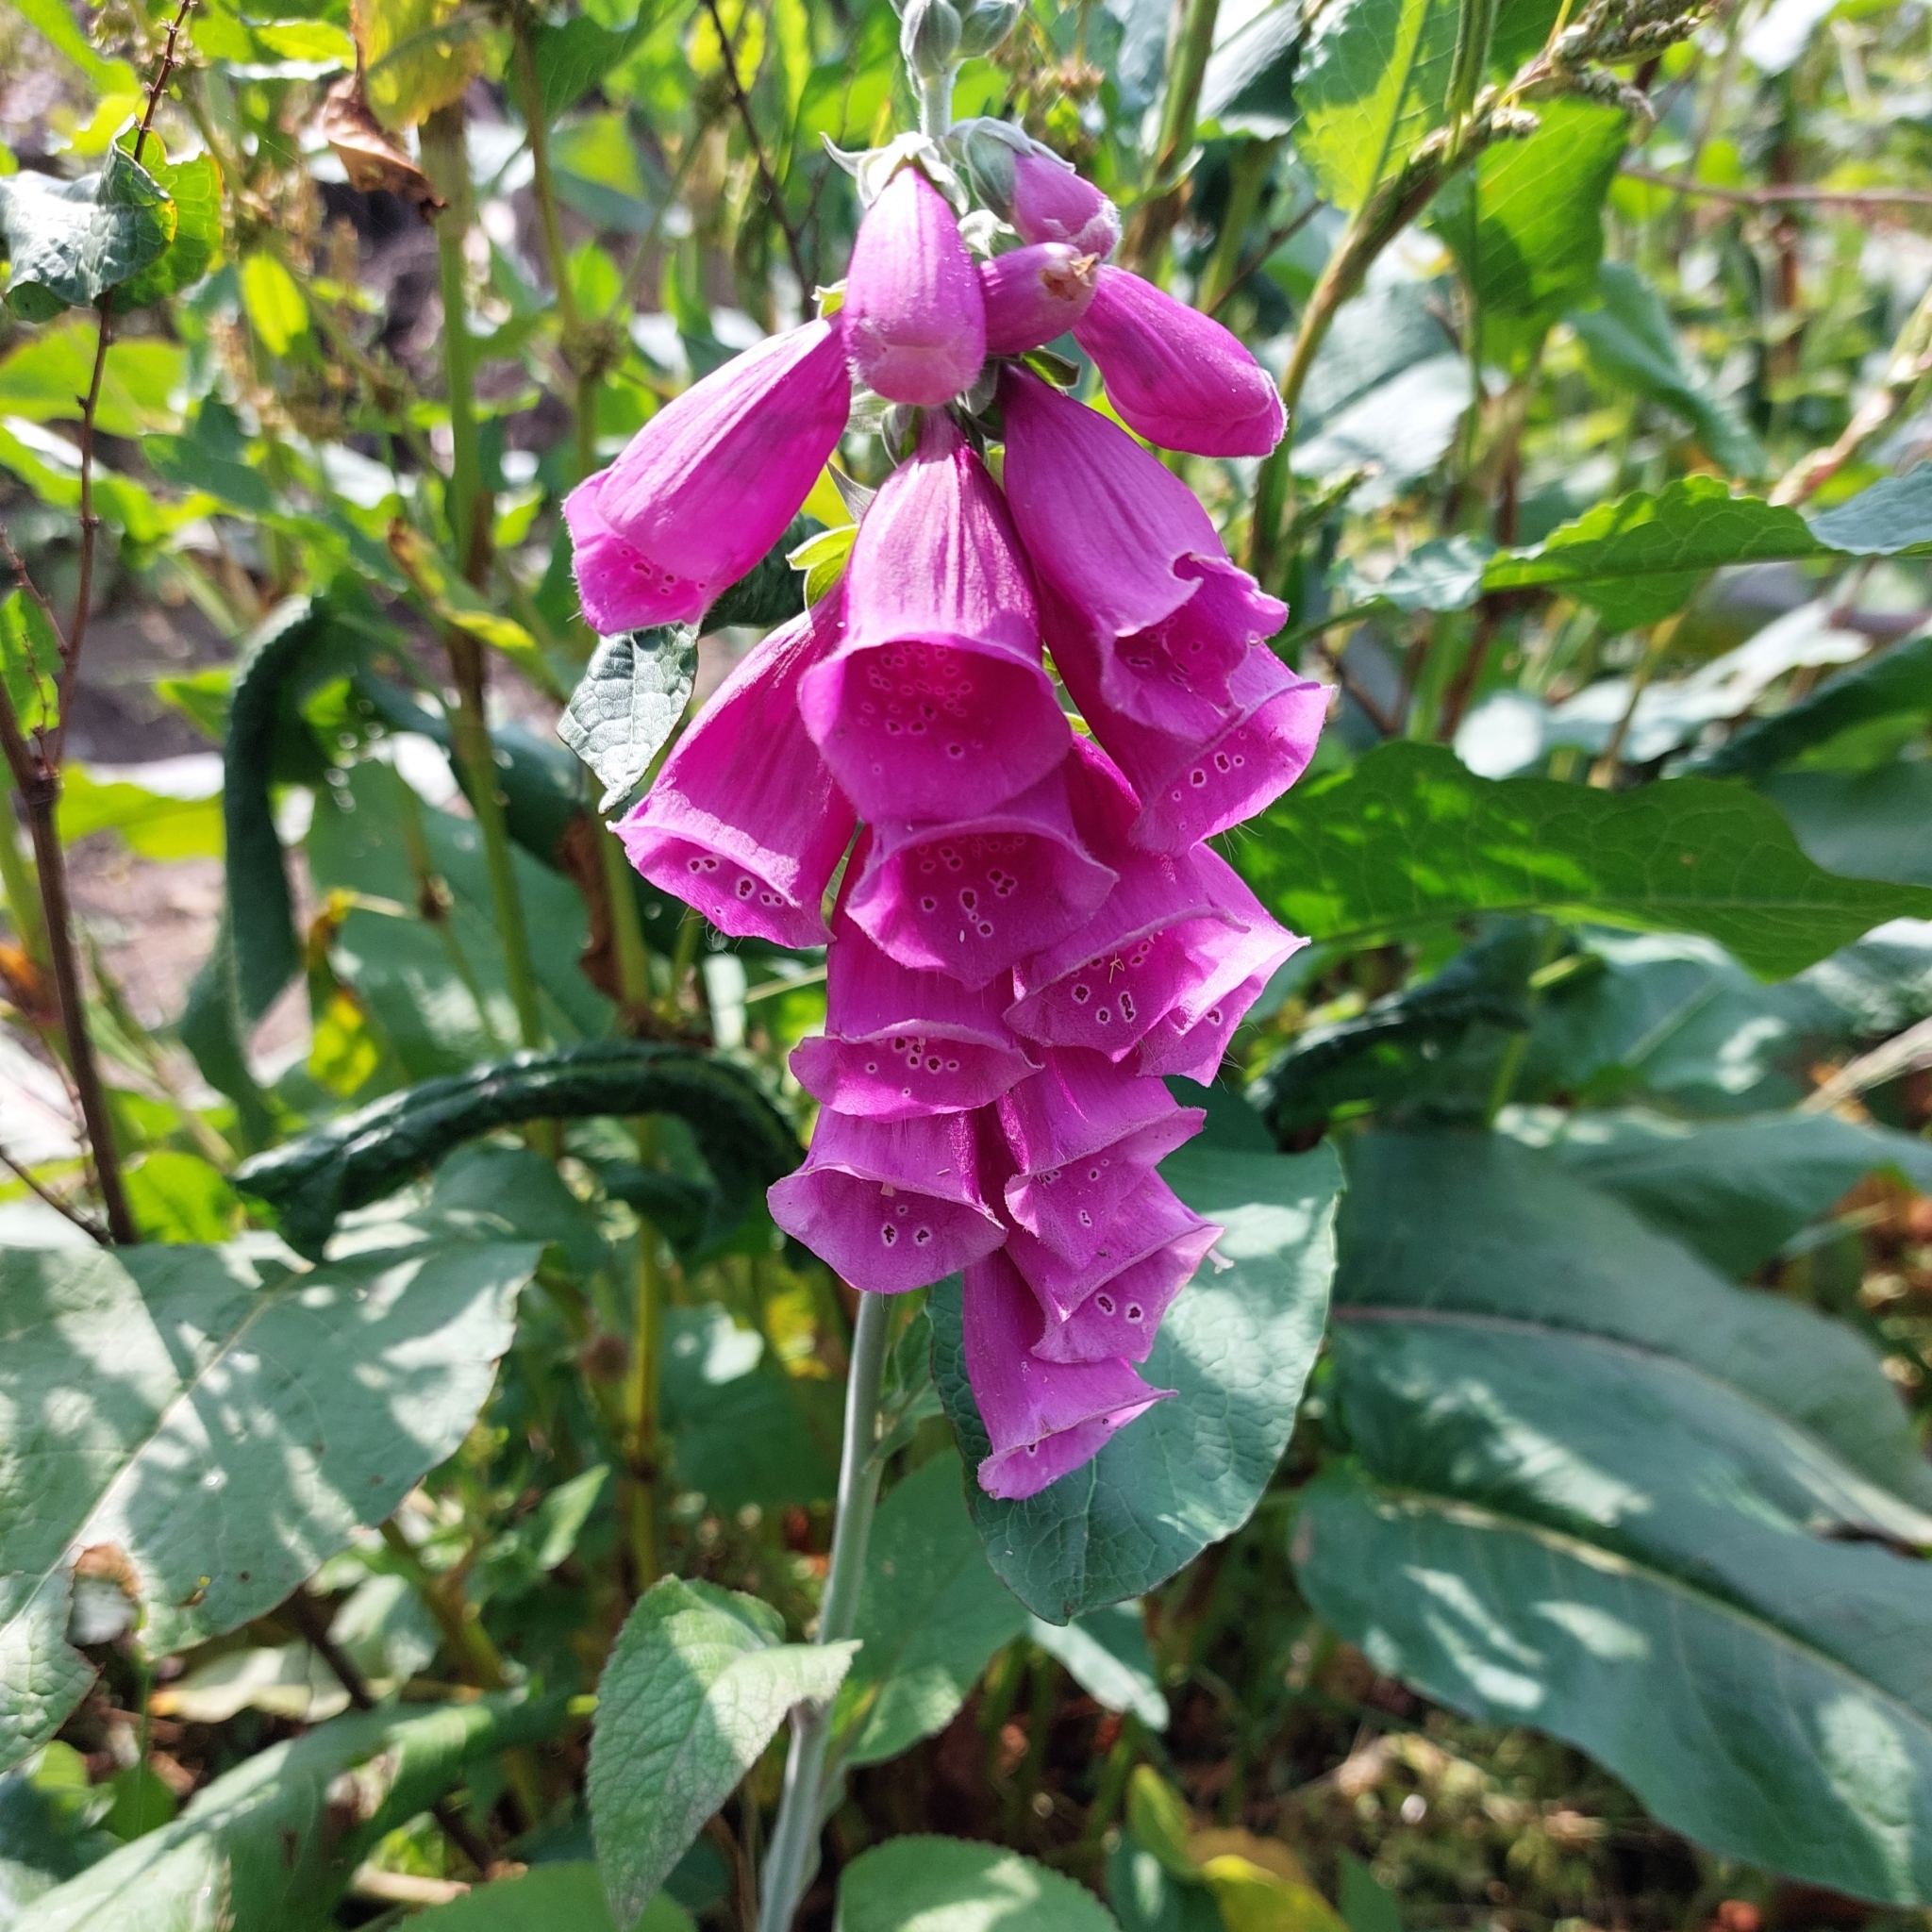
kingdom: Plantae
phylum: Tracheophyta
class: Magnoliopsida
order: Lamiales
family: Plantaginaceae
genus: Digitalis
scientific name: Digitalis purpurea
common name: Foxglove
